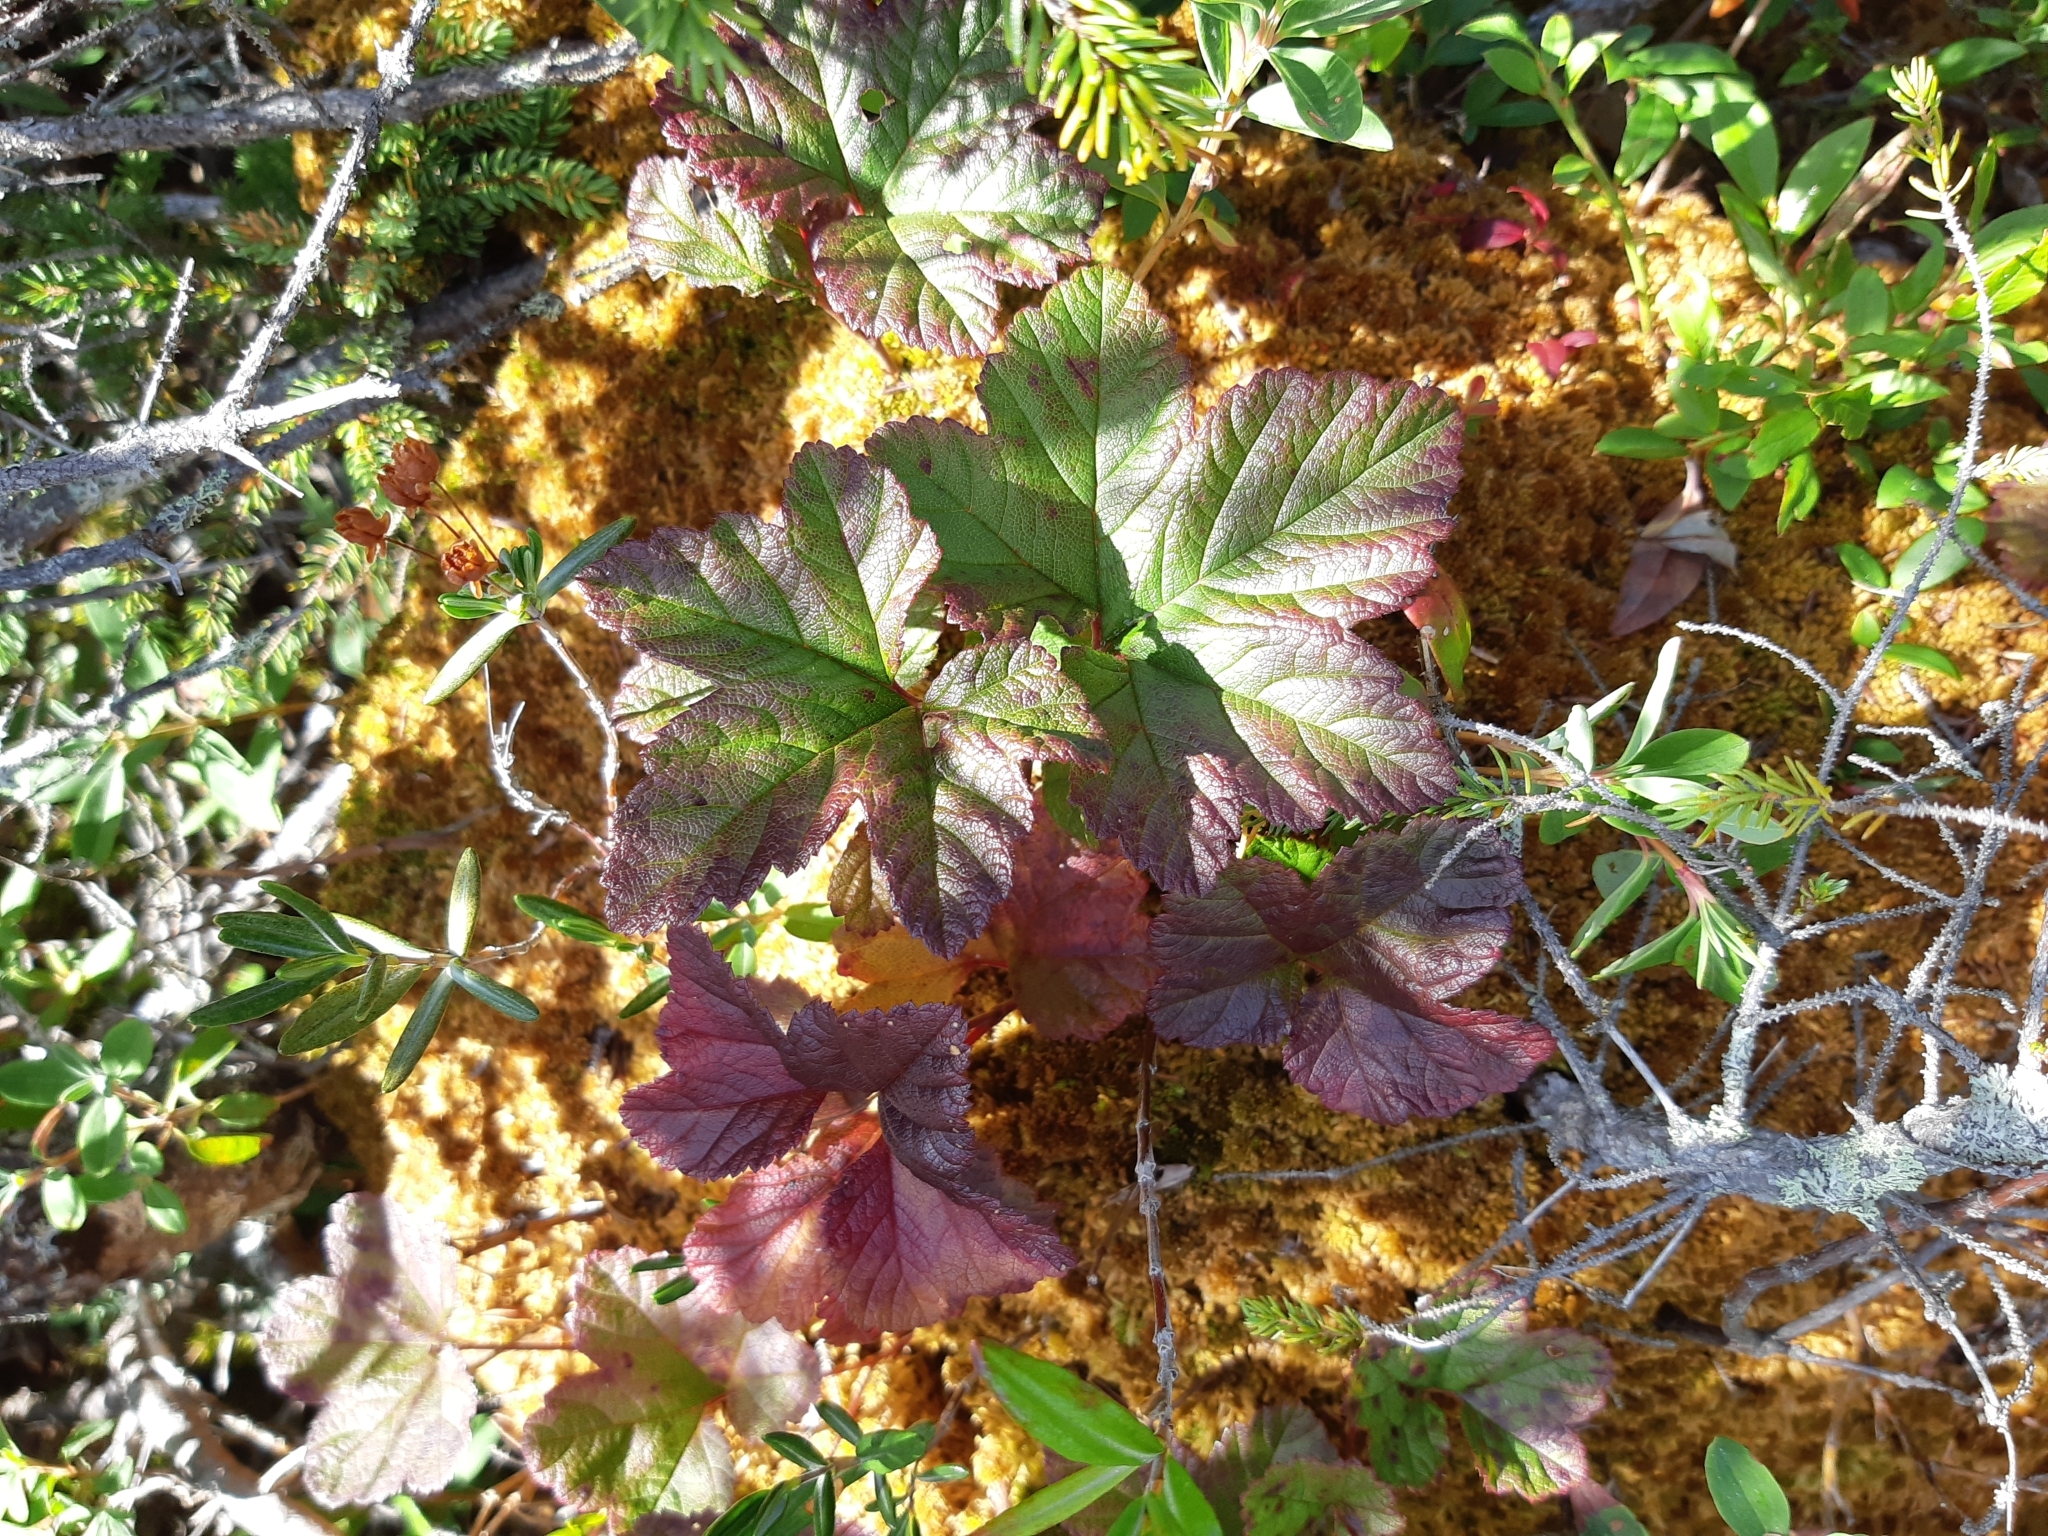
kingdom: Plantae
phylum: Tracheophyta
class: Magnoliopsida
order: Rosales
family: Rosaceae
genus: Rubus
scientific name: Rubus chamaemorus
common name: Cloudberry
